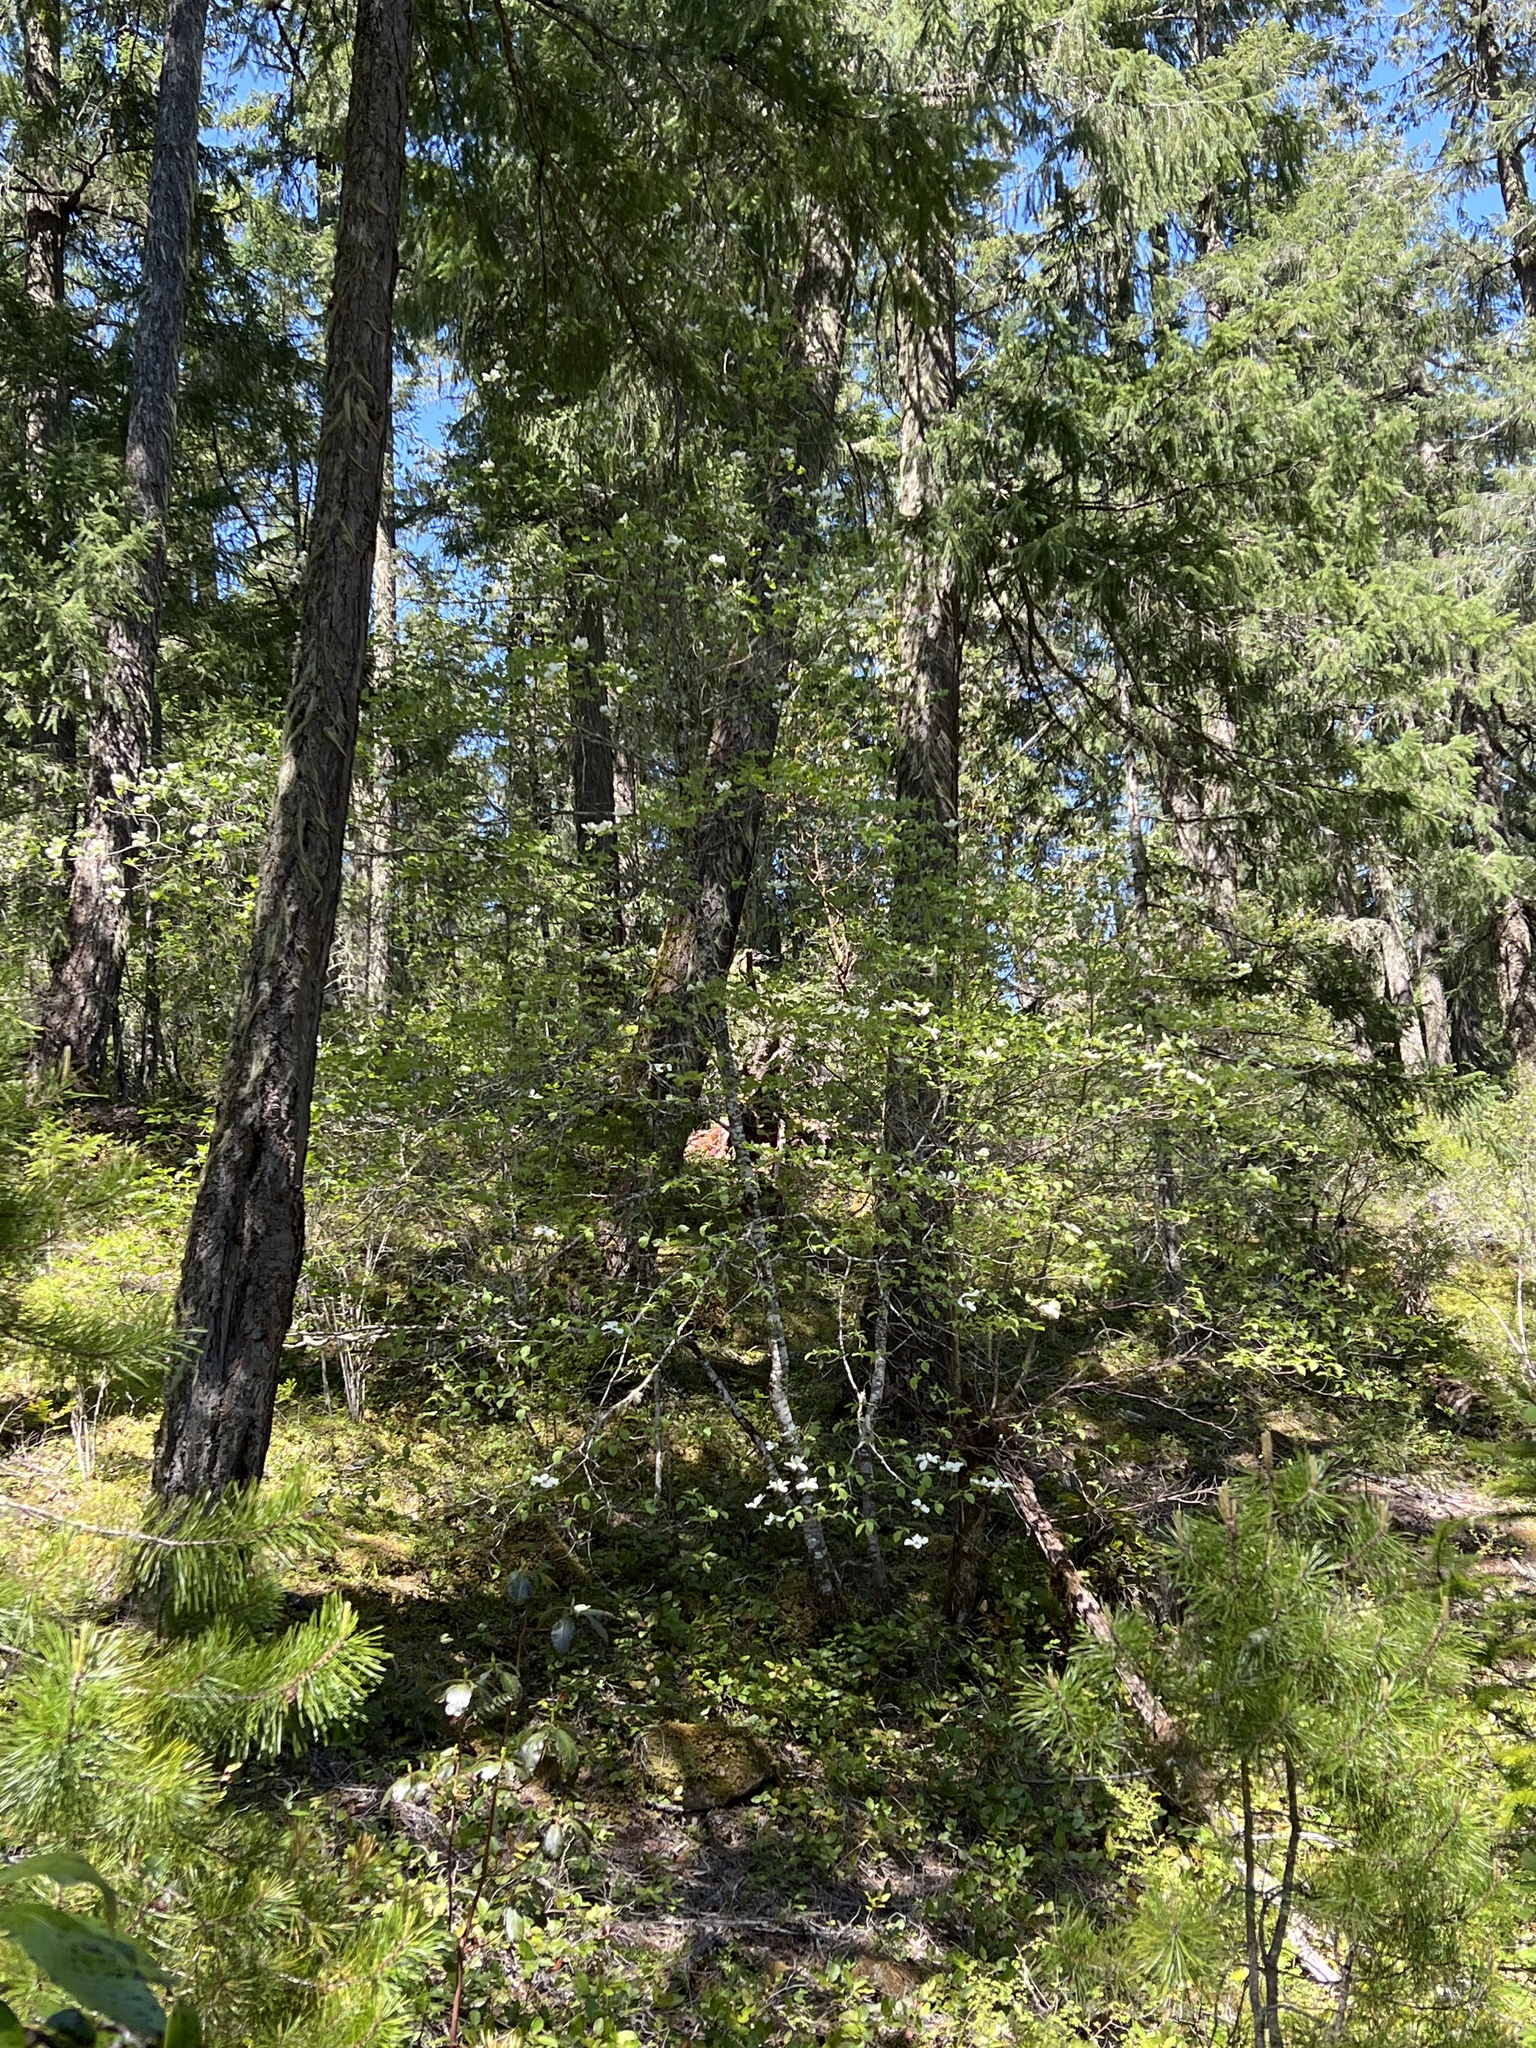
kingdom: Plantae
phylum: Tracheophyta
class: Magnoliopsida
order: Cornales
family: Cornaceae
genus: Cornus
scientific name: Cornus nuttallii
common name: Pacific dogwood
